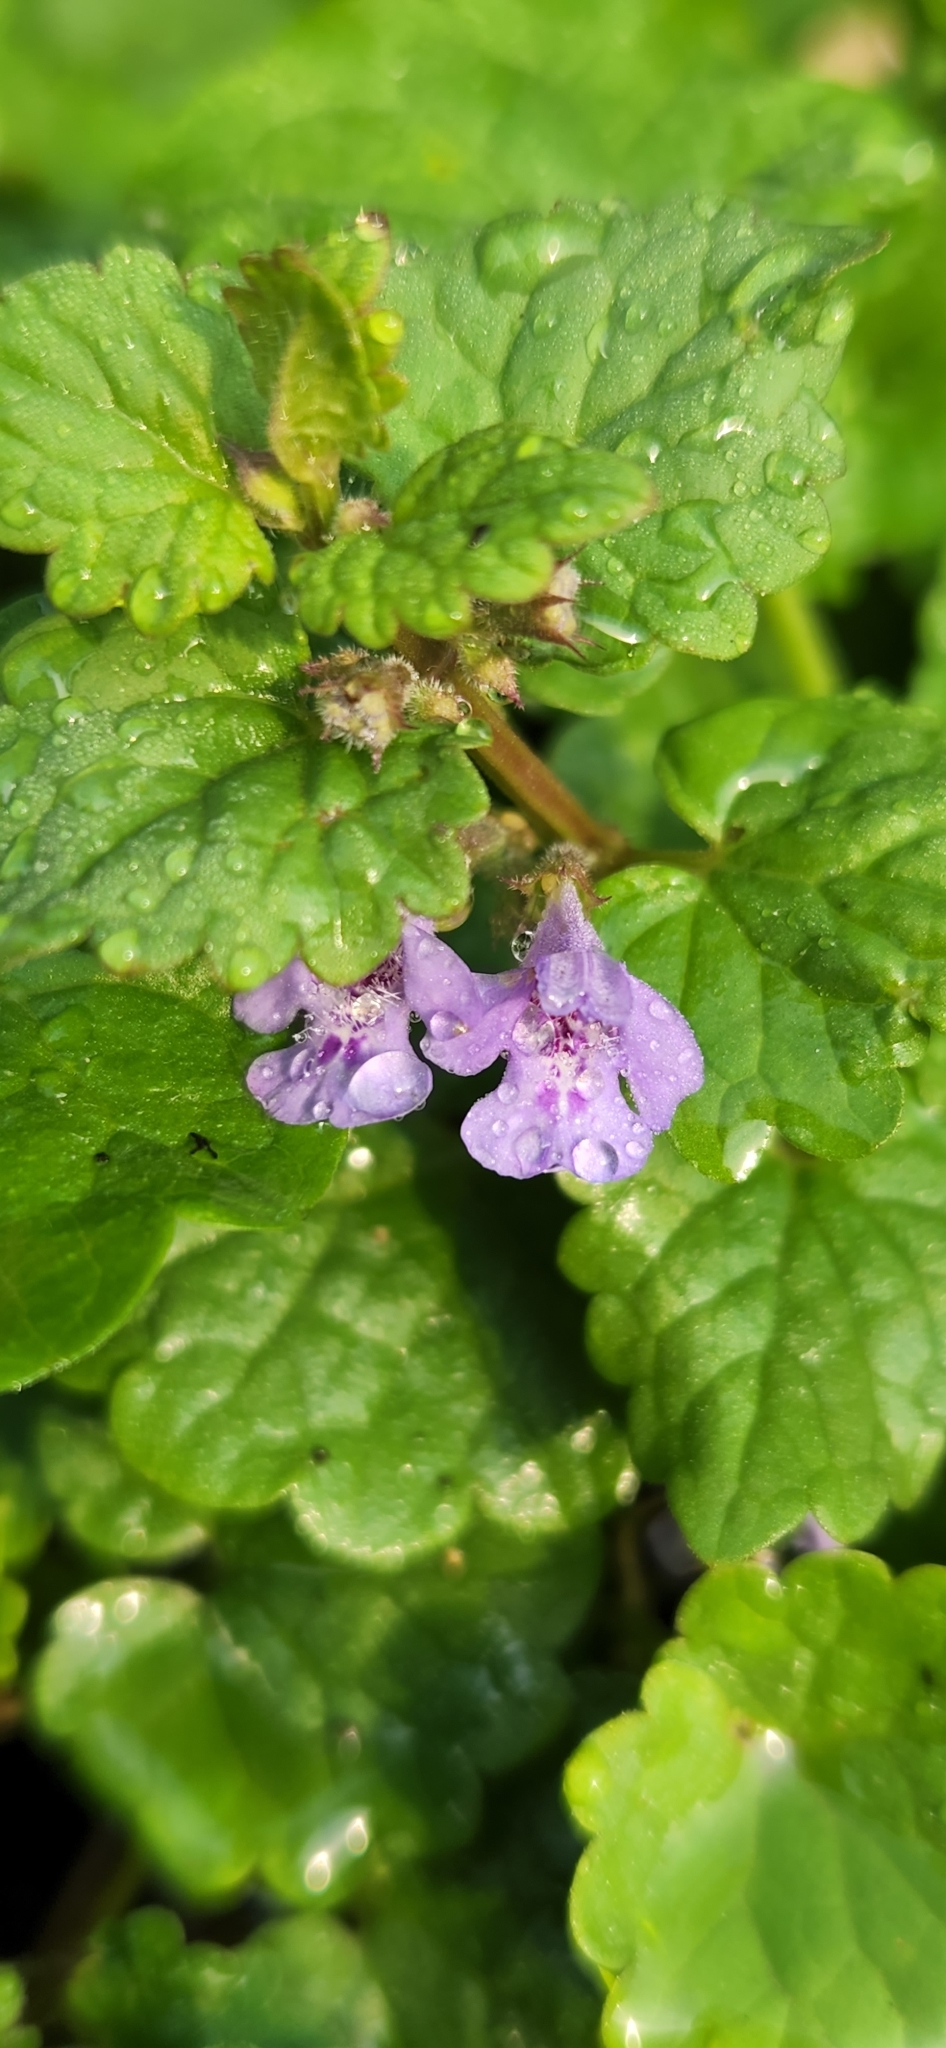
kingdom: Plantae
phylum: Tracheophyta
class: Magnoliopsida
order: Lamiales
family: Lamiaceae
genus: Glechoma
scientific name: Glechoma hederacea
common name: Ground ivy
